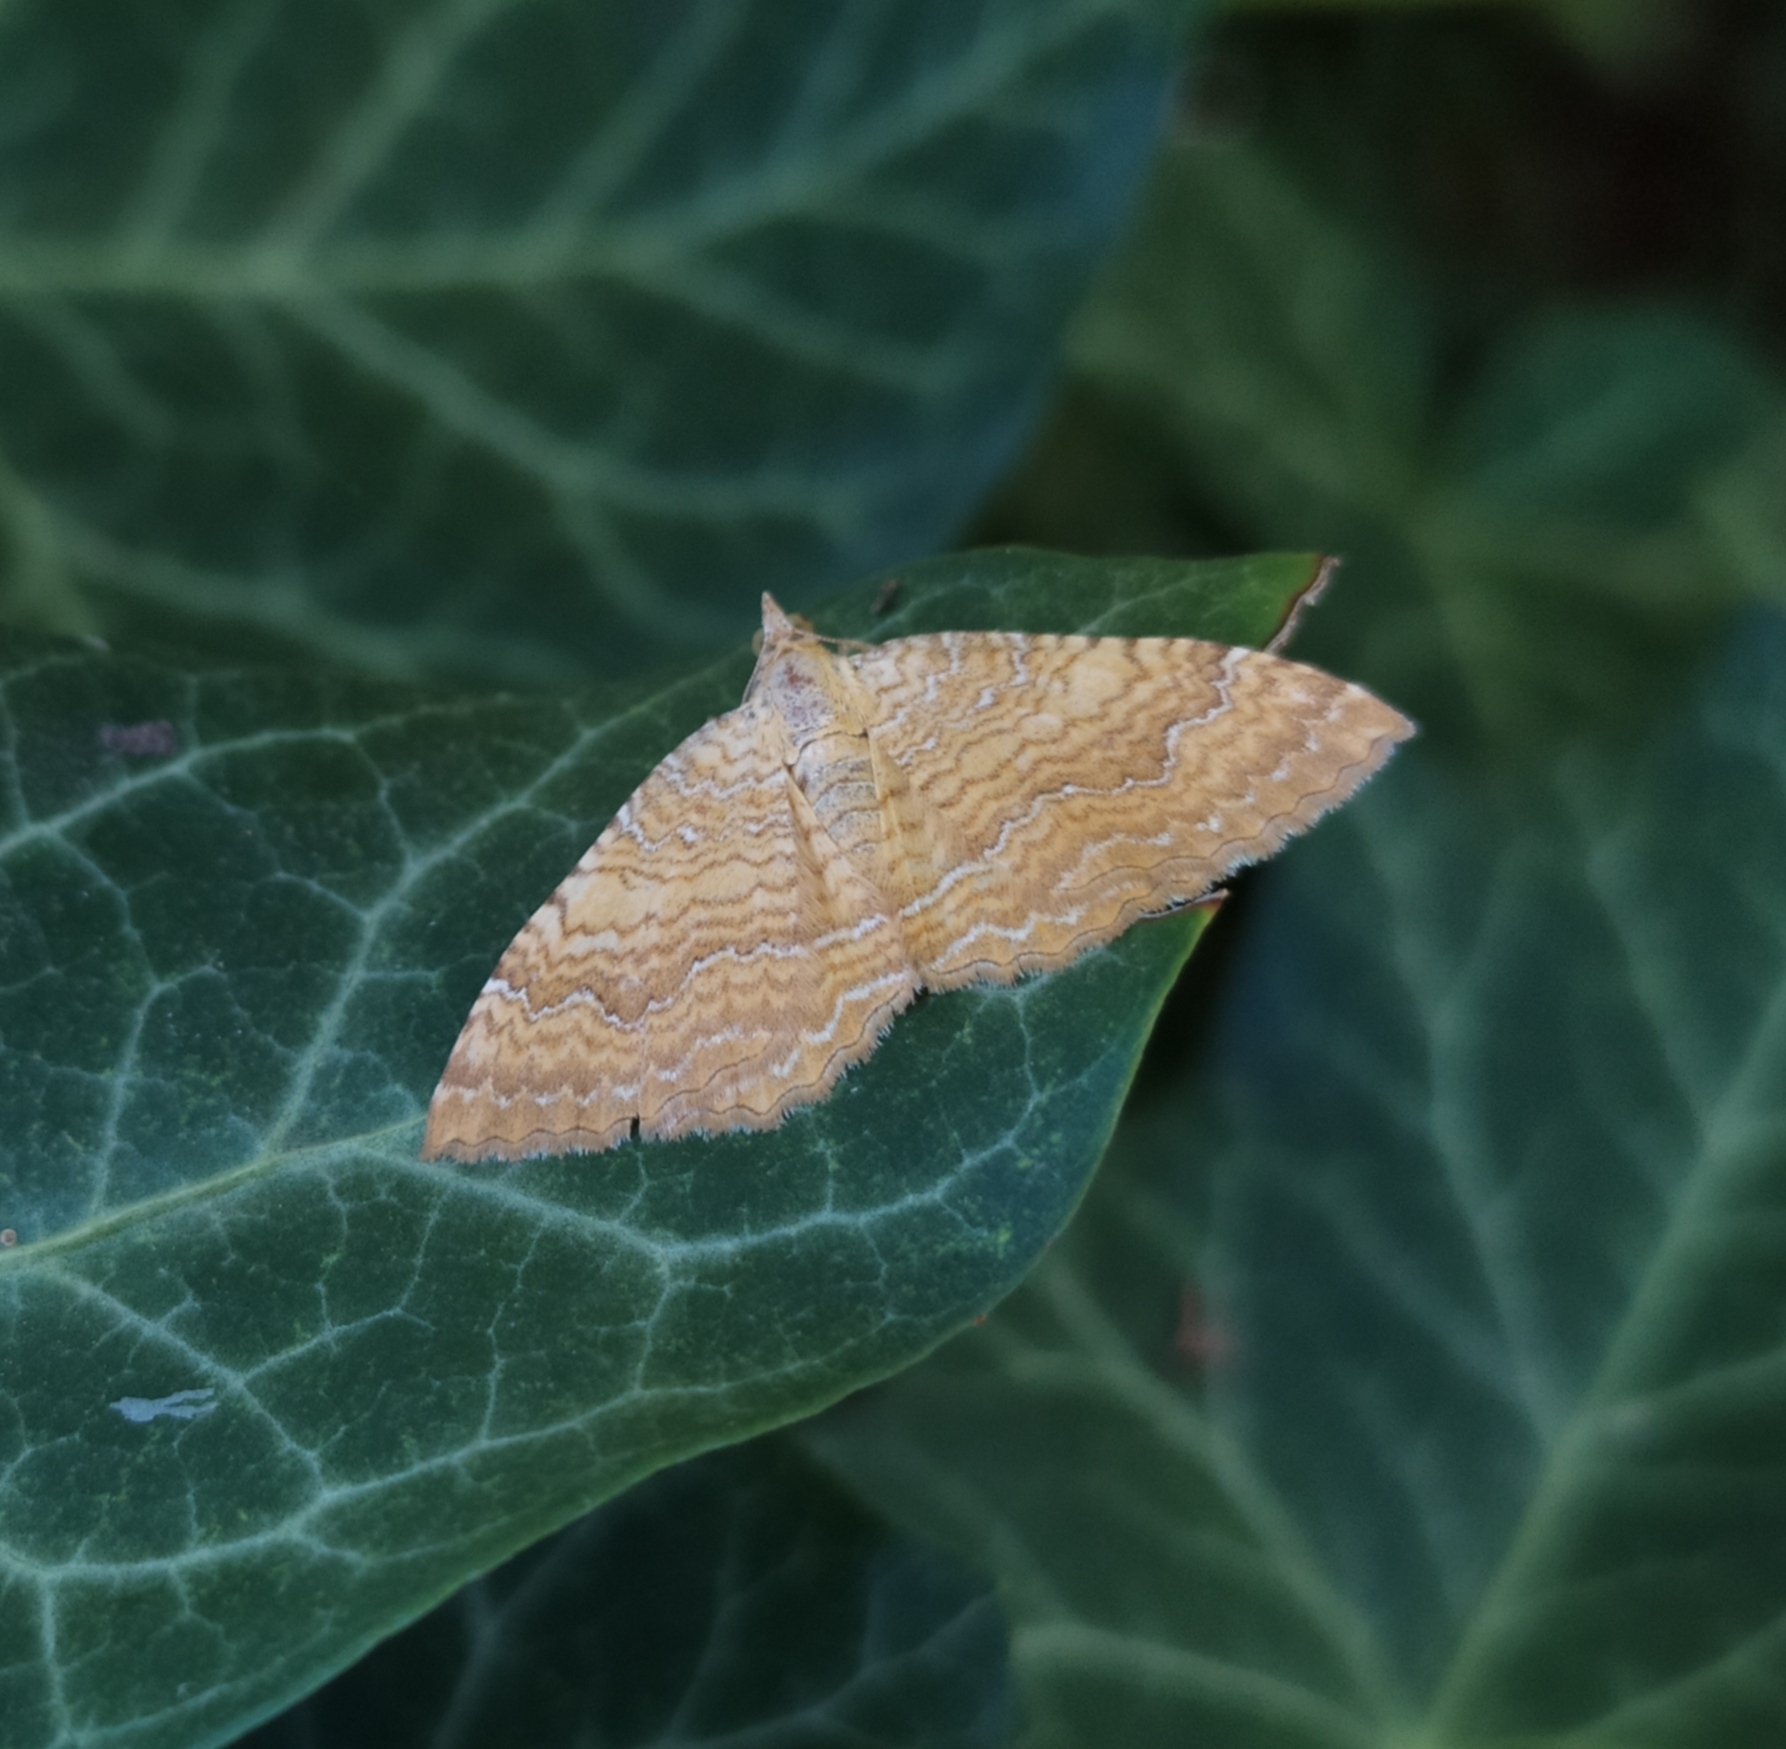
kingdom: Animalia
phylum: Arthropoda
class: Insecta
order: Lepidoptera
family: Geometridae
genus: Camptogramma
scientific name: Camptogramma bilineata
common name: Yellow shell
